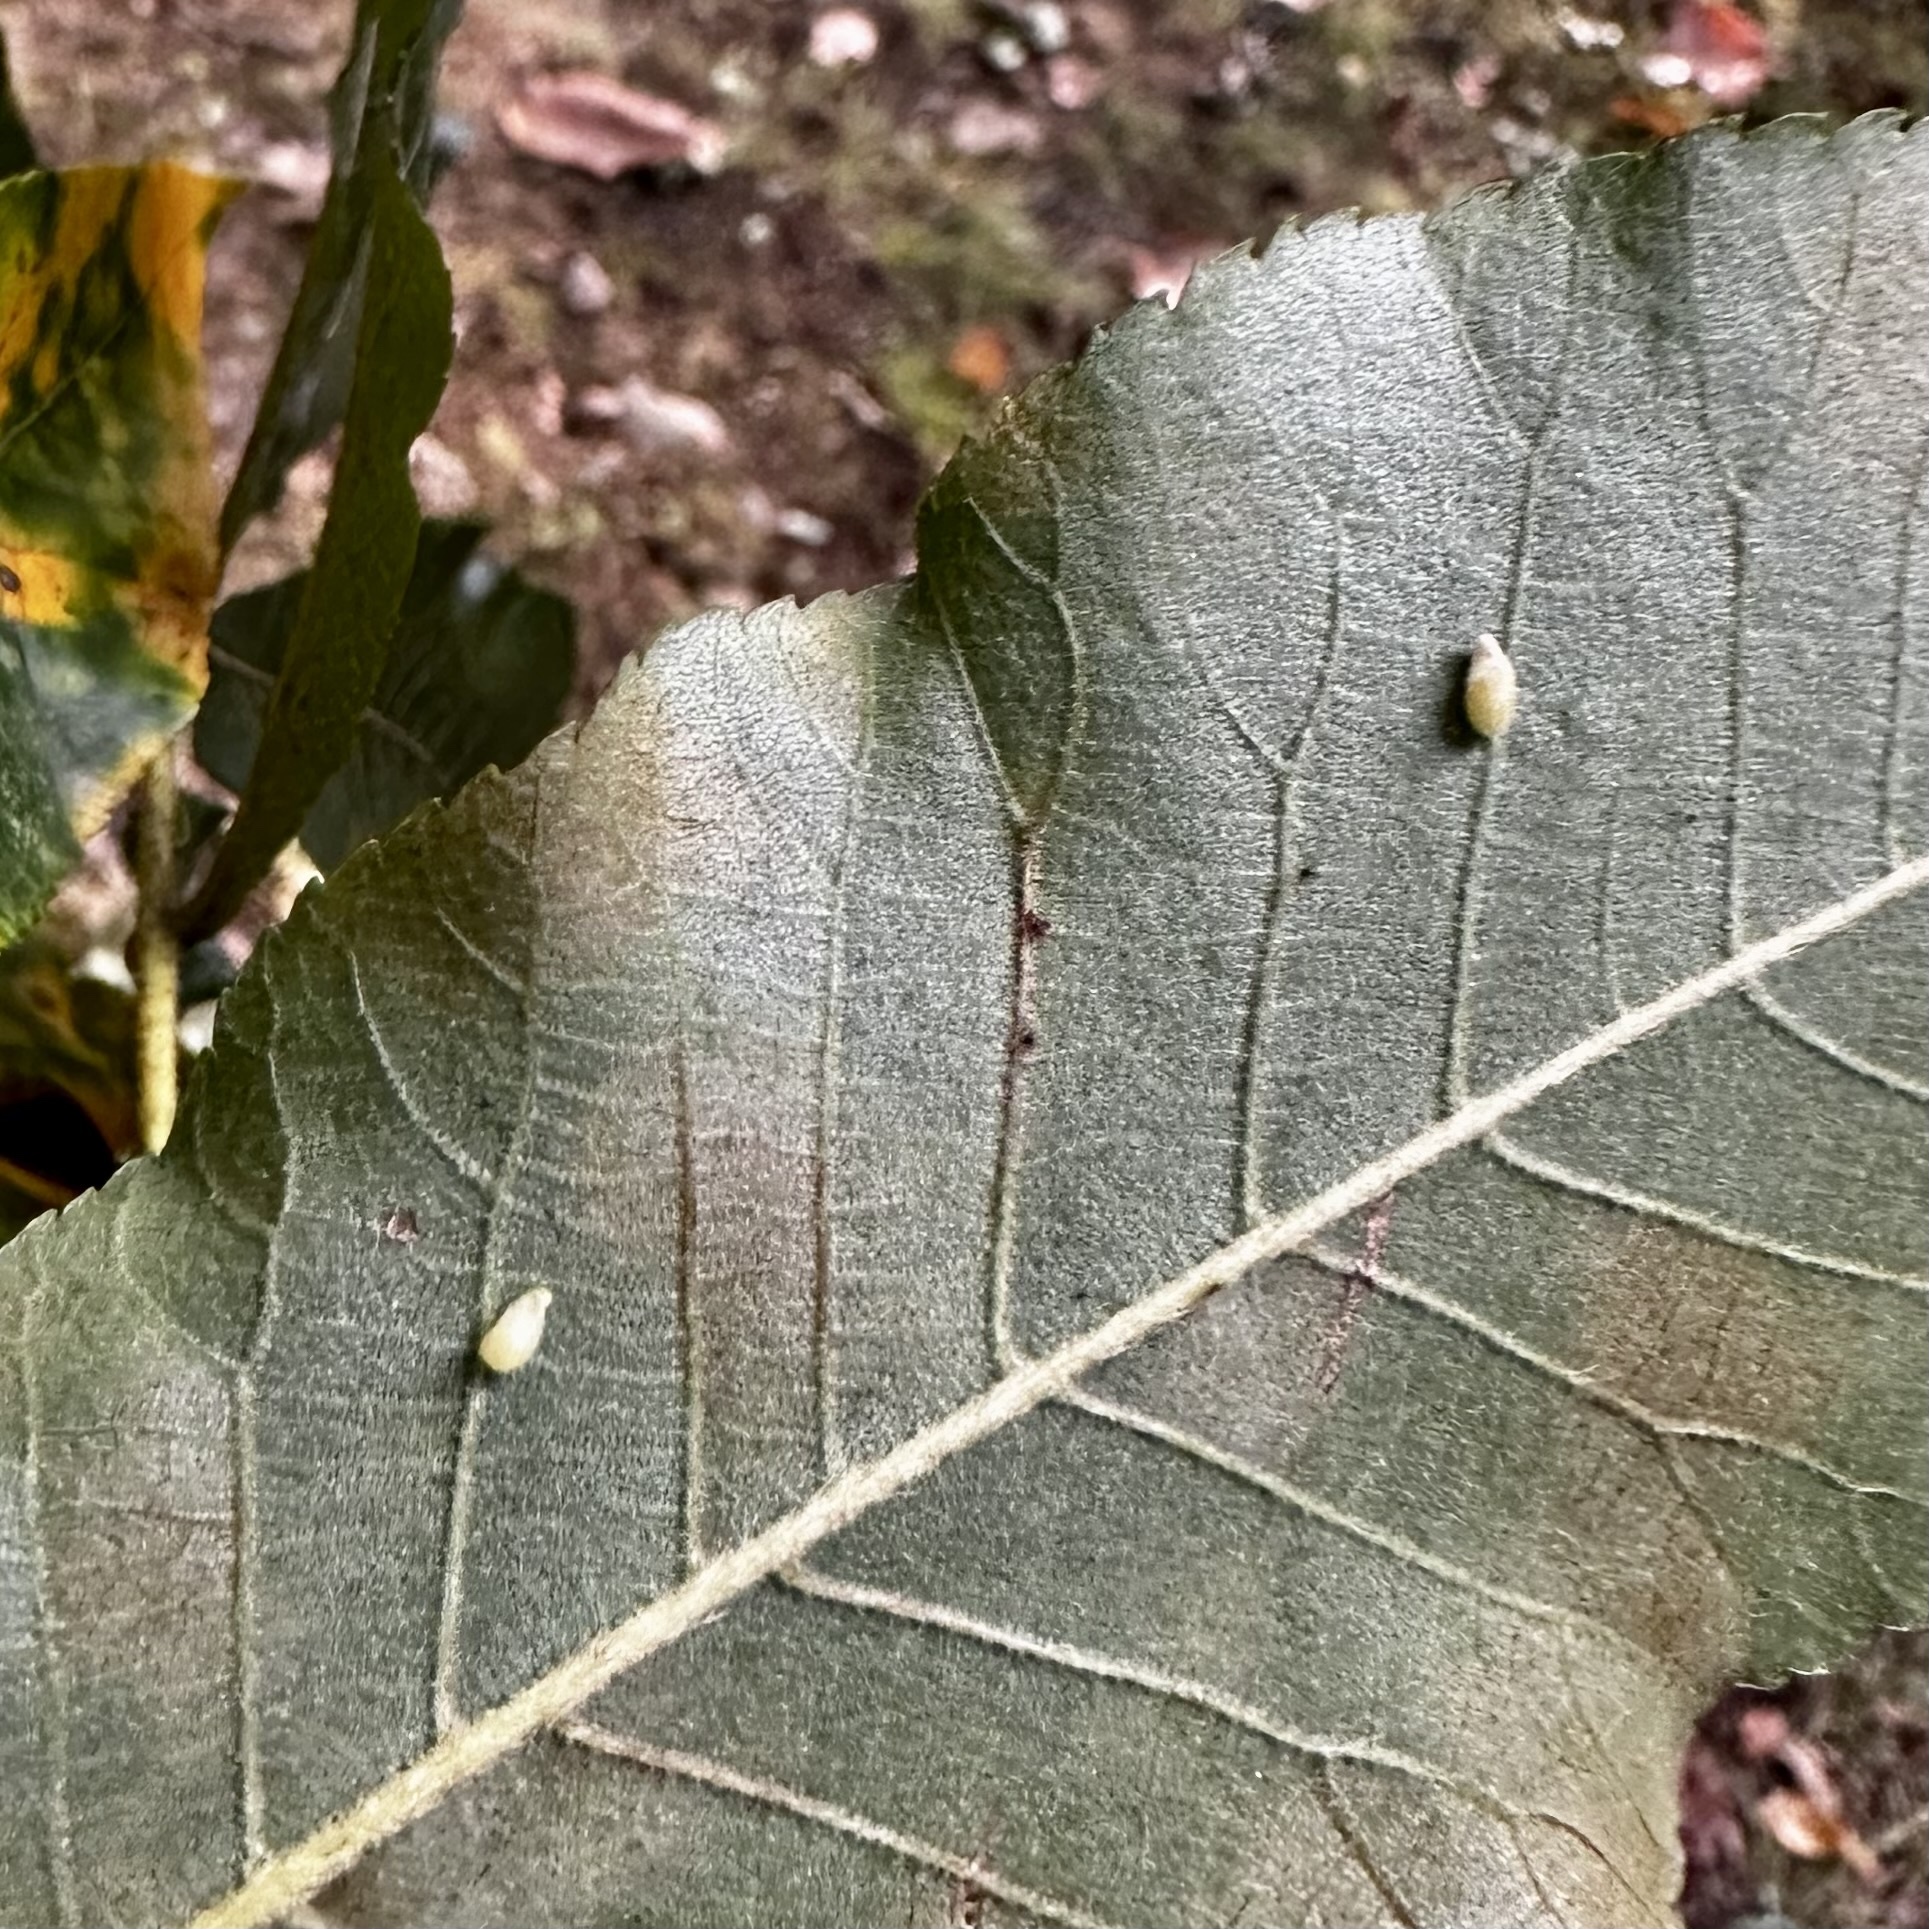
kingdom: Animalia
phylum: Arthropoda
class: Insecta
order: Diptera
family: Cecidomyiidae
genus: Caryomyia
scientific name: Caryomyia eumaris
